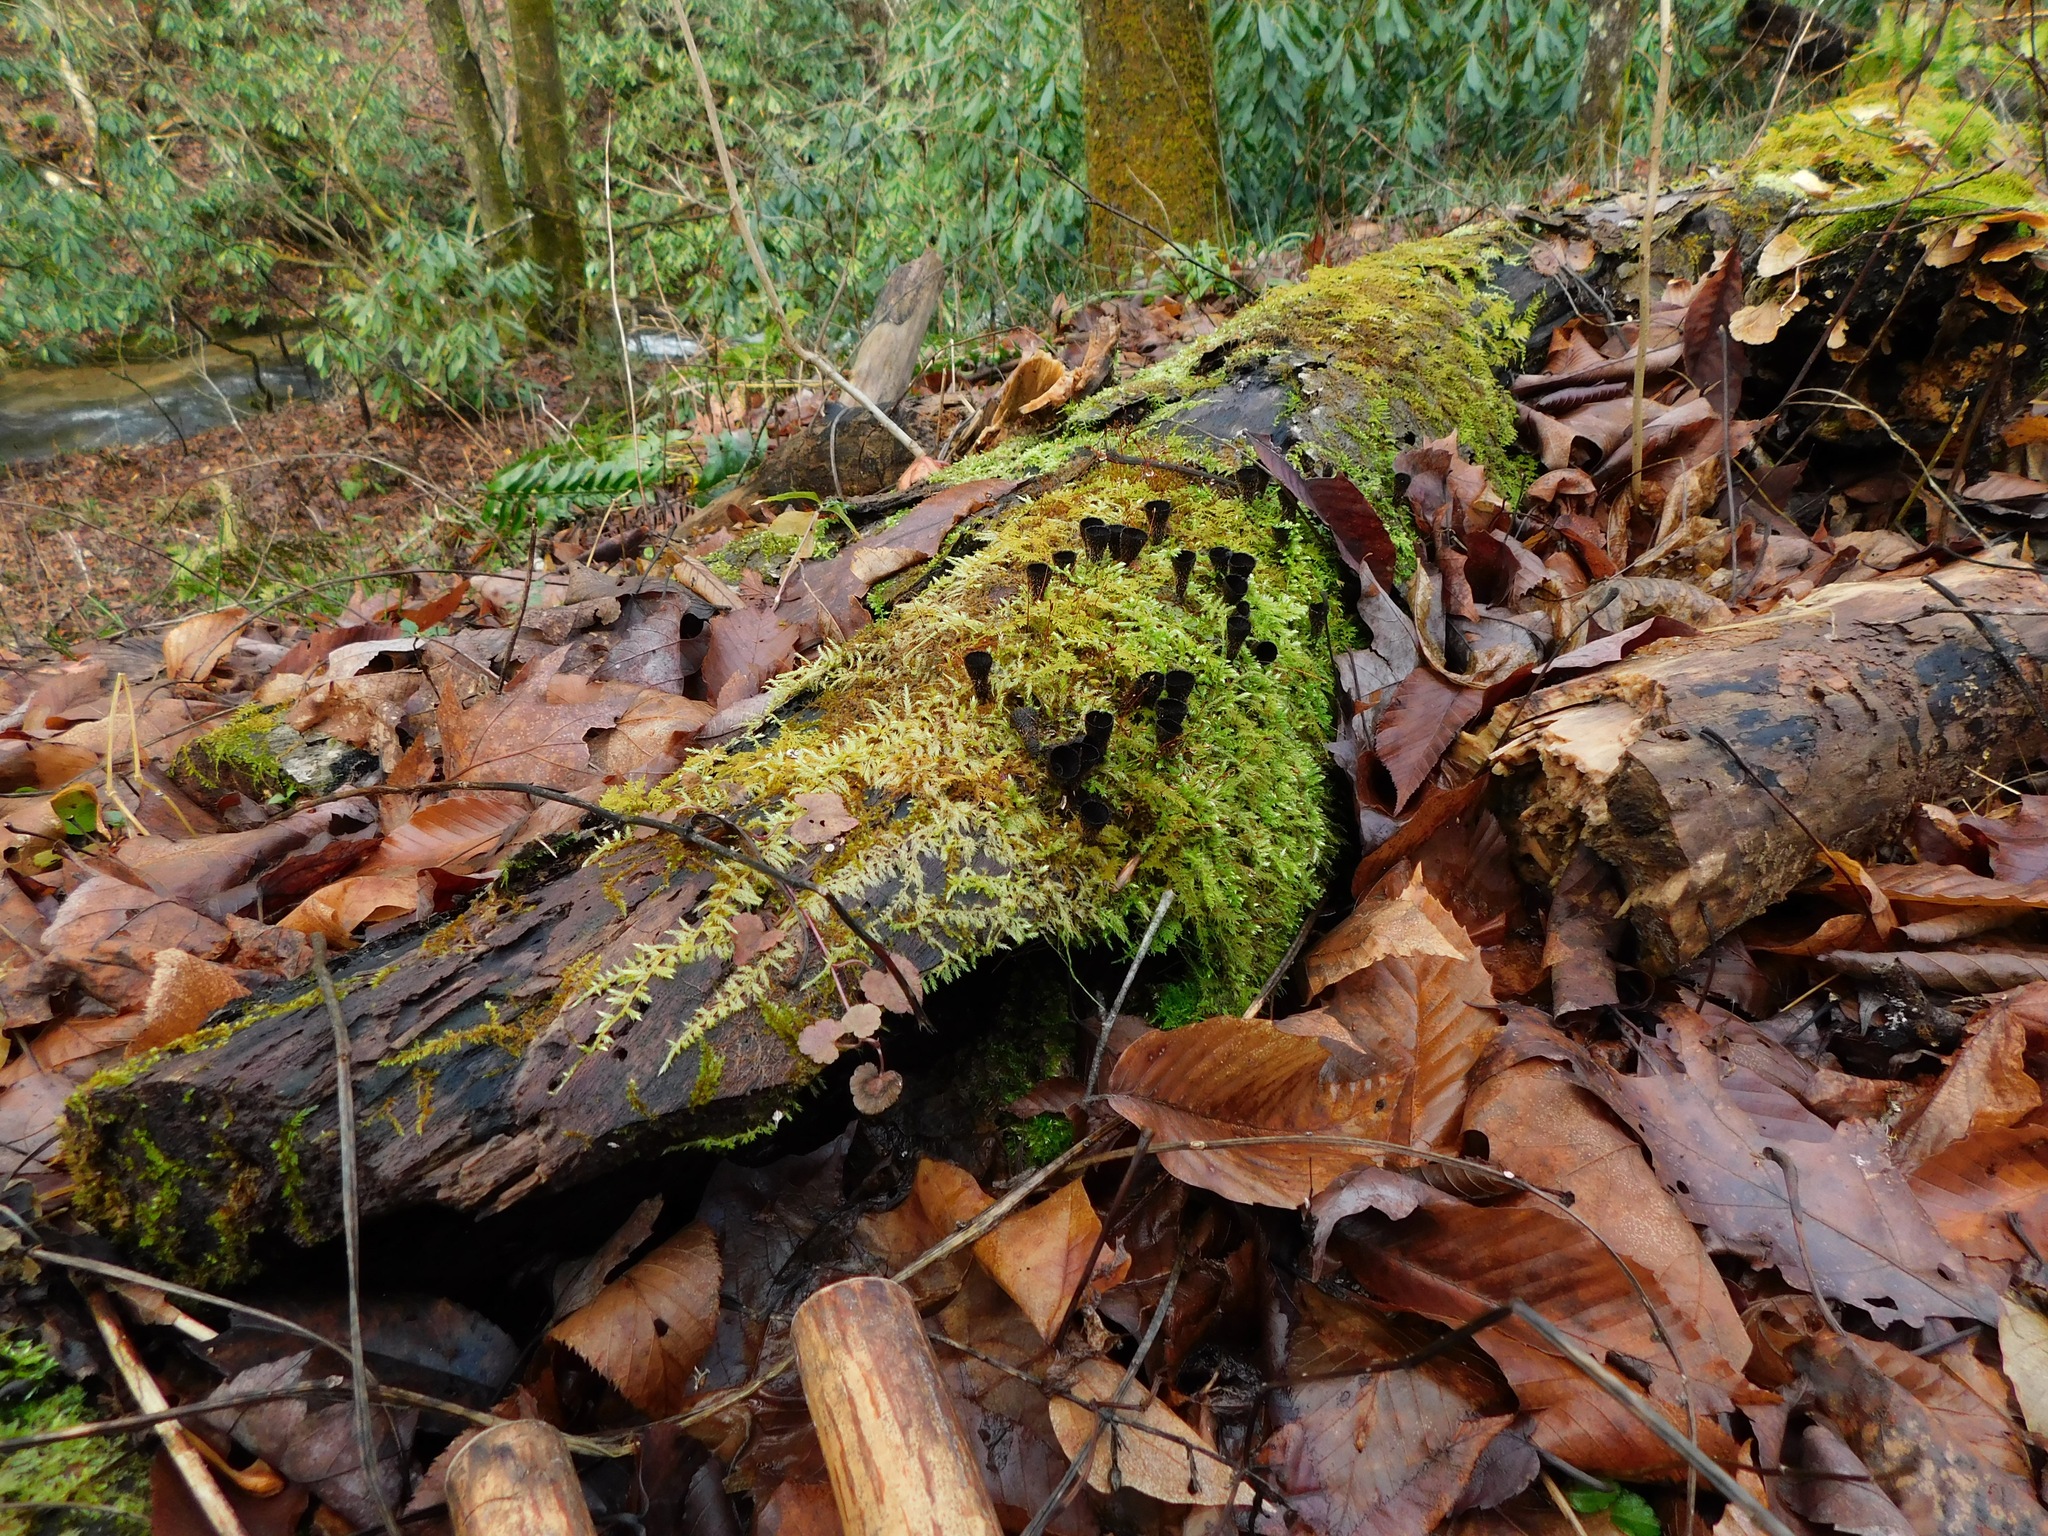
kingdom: Fungi
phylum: Basidiomycota
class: Agaricomycetes
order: Agaricales
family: Agaricaceae
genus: Cyathus
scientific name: Cyathus striatus
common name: Fluted bird's nest
